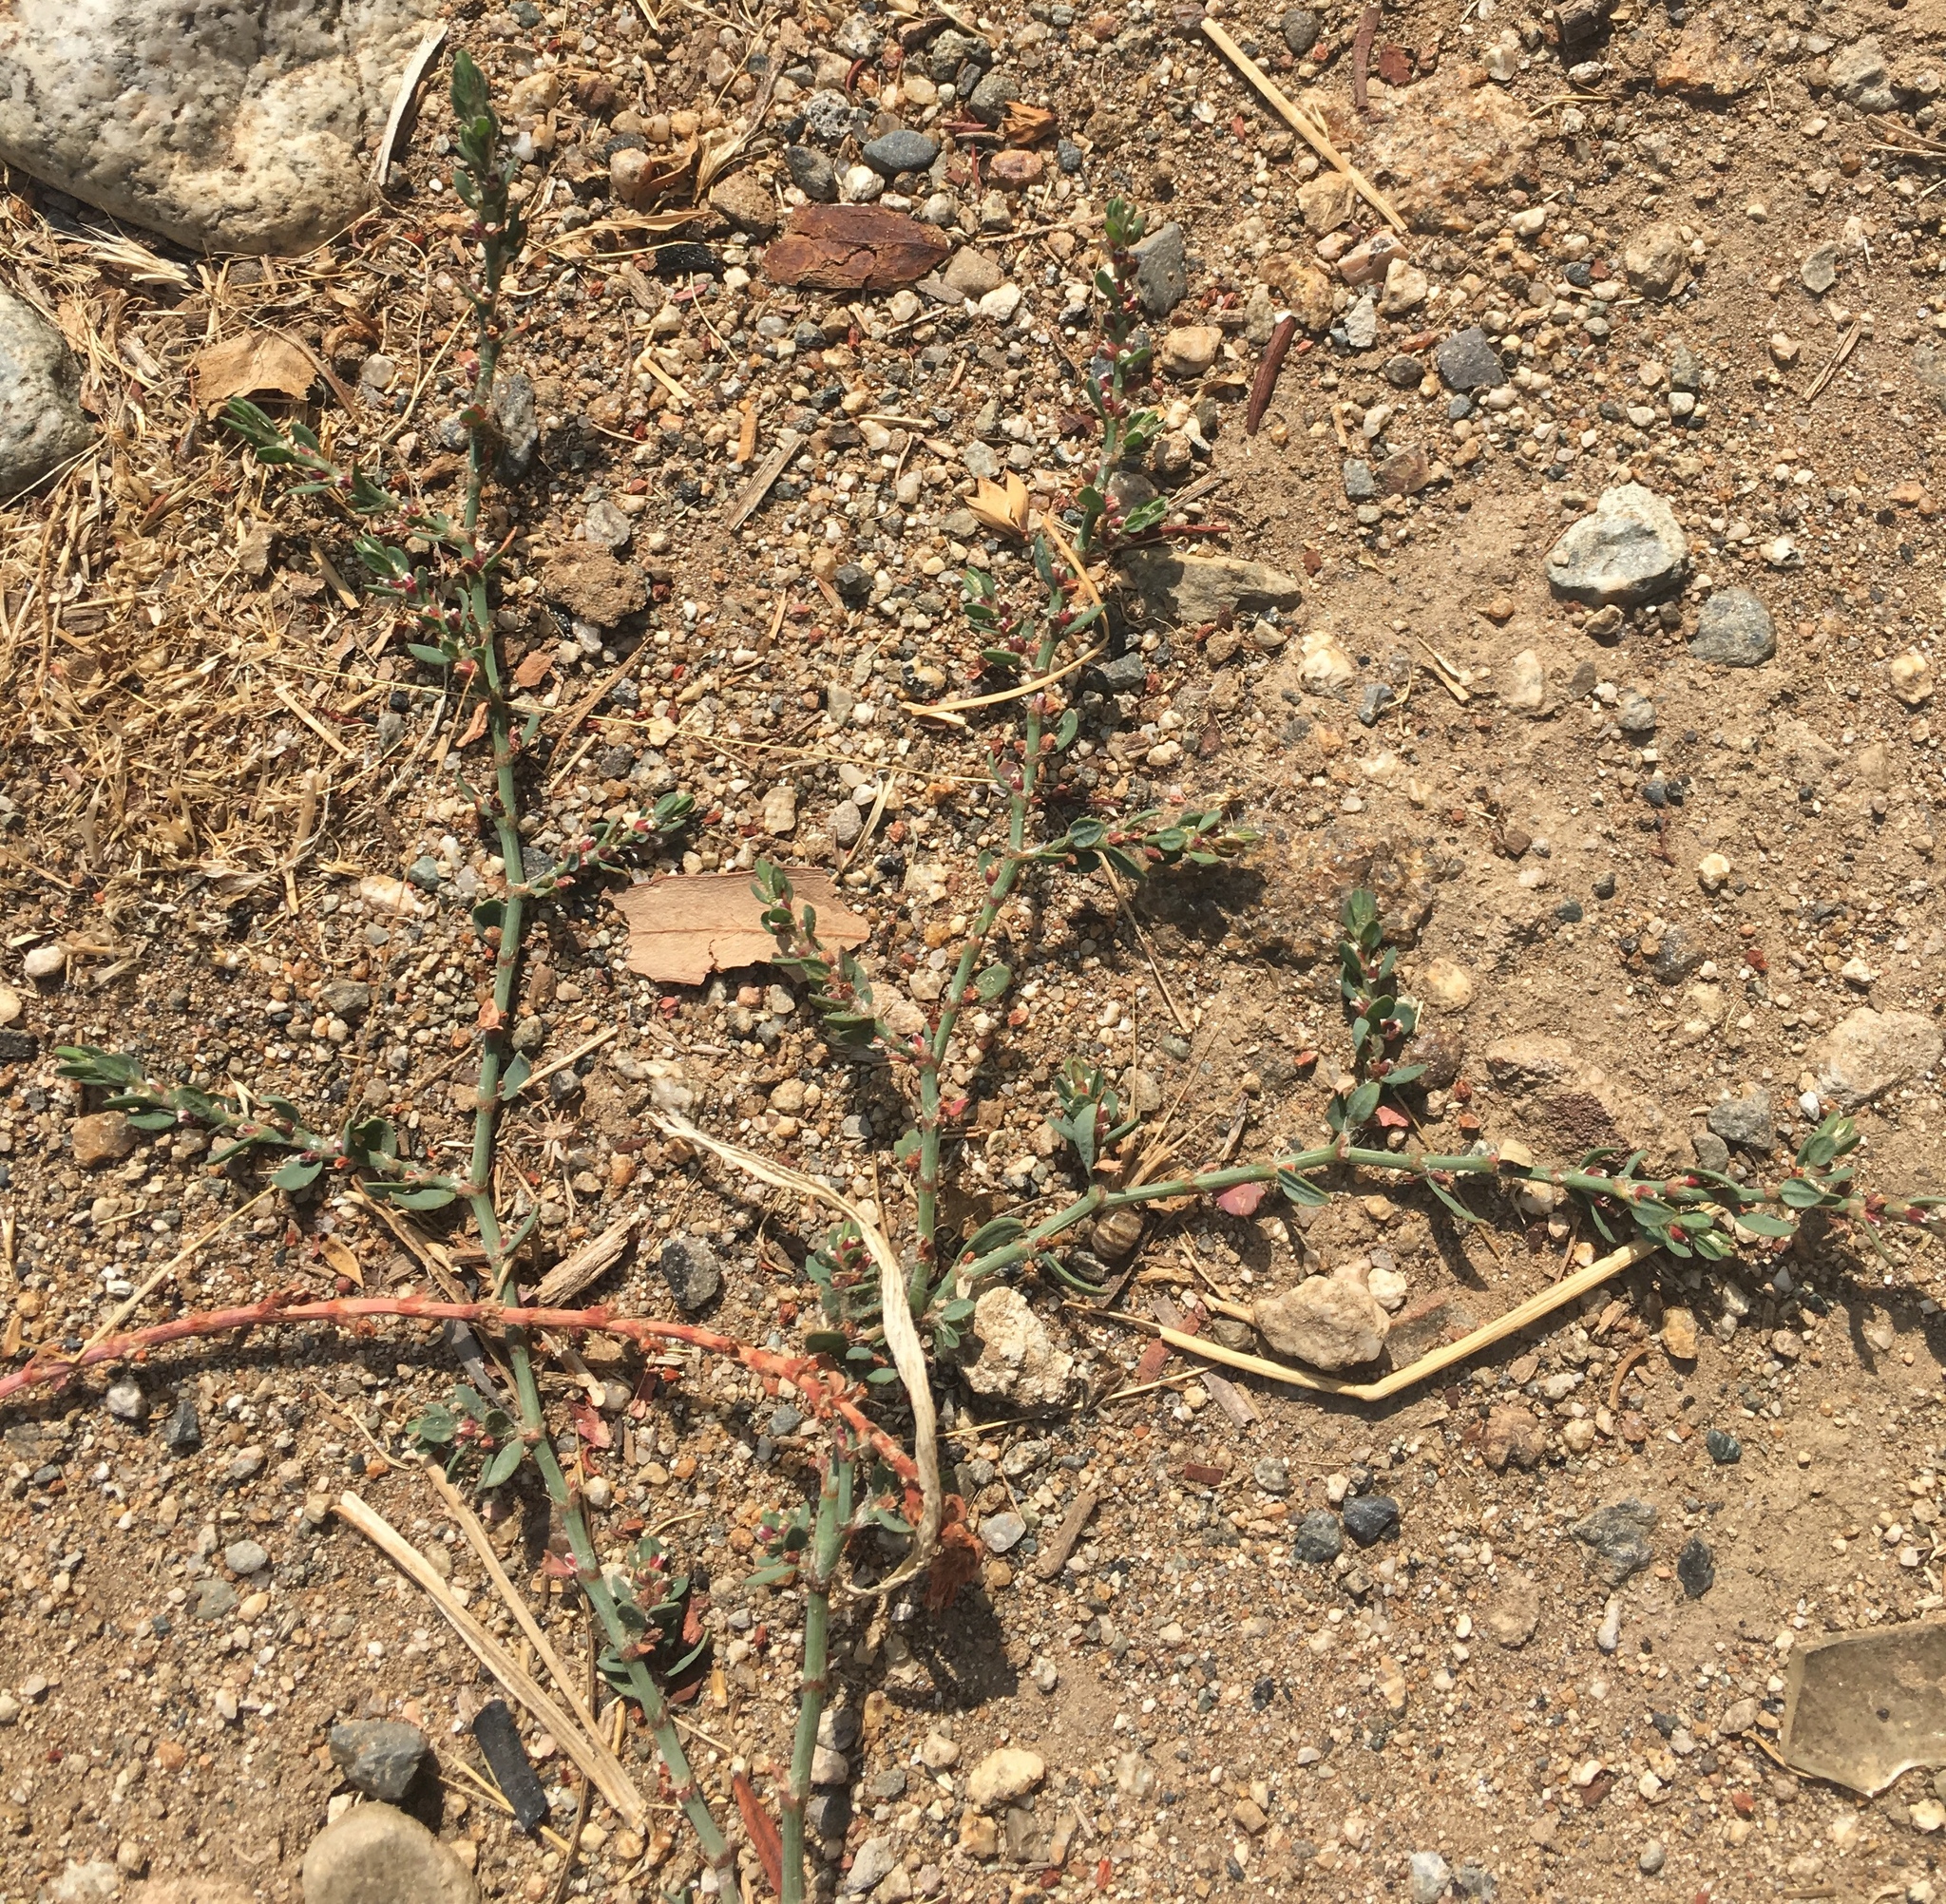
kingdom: Plantae
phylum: Tracheophyta
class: Magnoliopsida
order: Caryophyllales
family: Polygonaceae
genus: Polygonum
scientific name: Polygonum aviculare
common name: Prostrate knotweed
